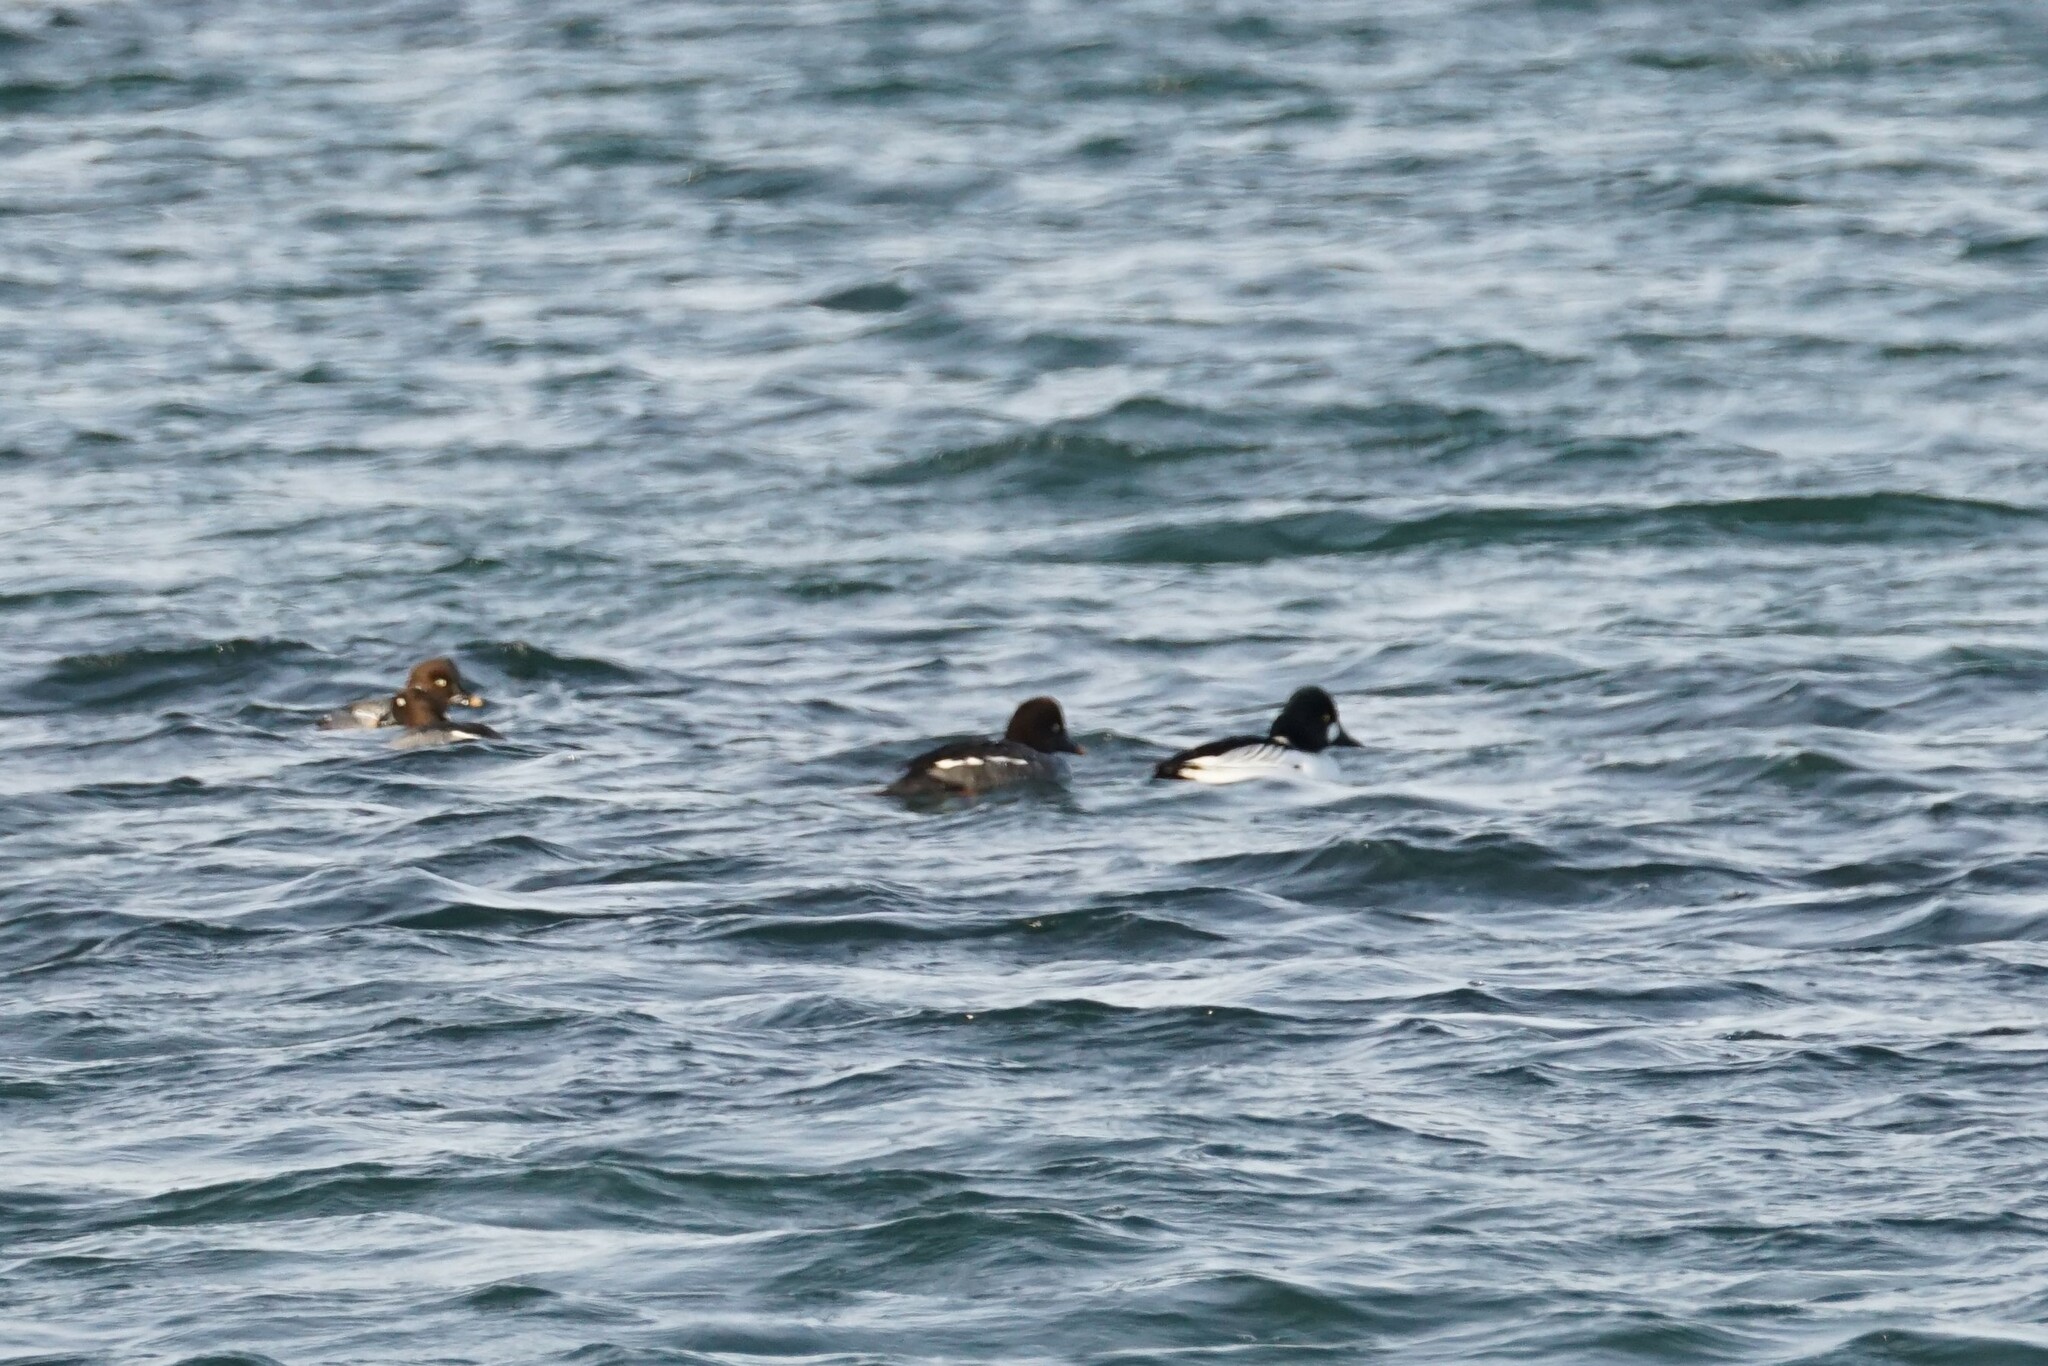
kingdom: Animalia
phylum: Chordata
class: Aves
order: Anseriformes
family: Anatidae
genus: Bucephala
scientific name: Bucephala clangula
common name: Common goldeneye
